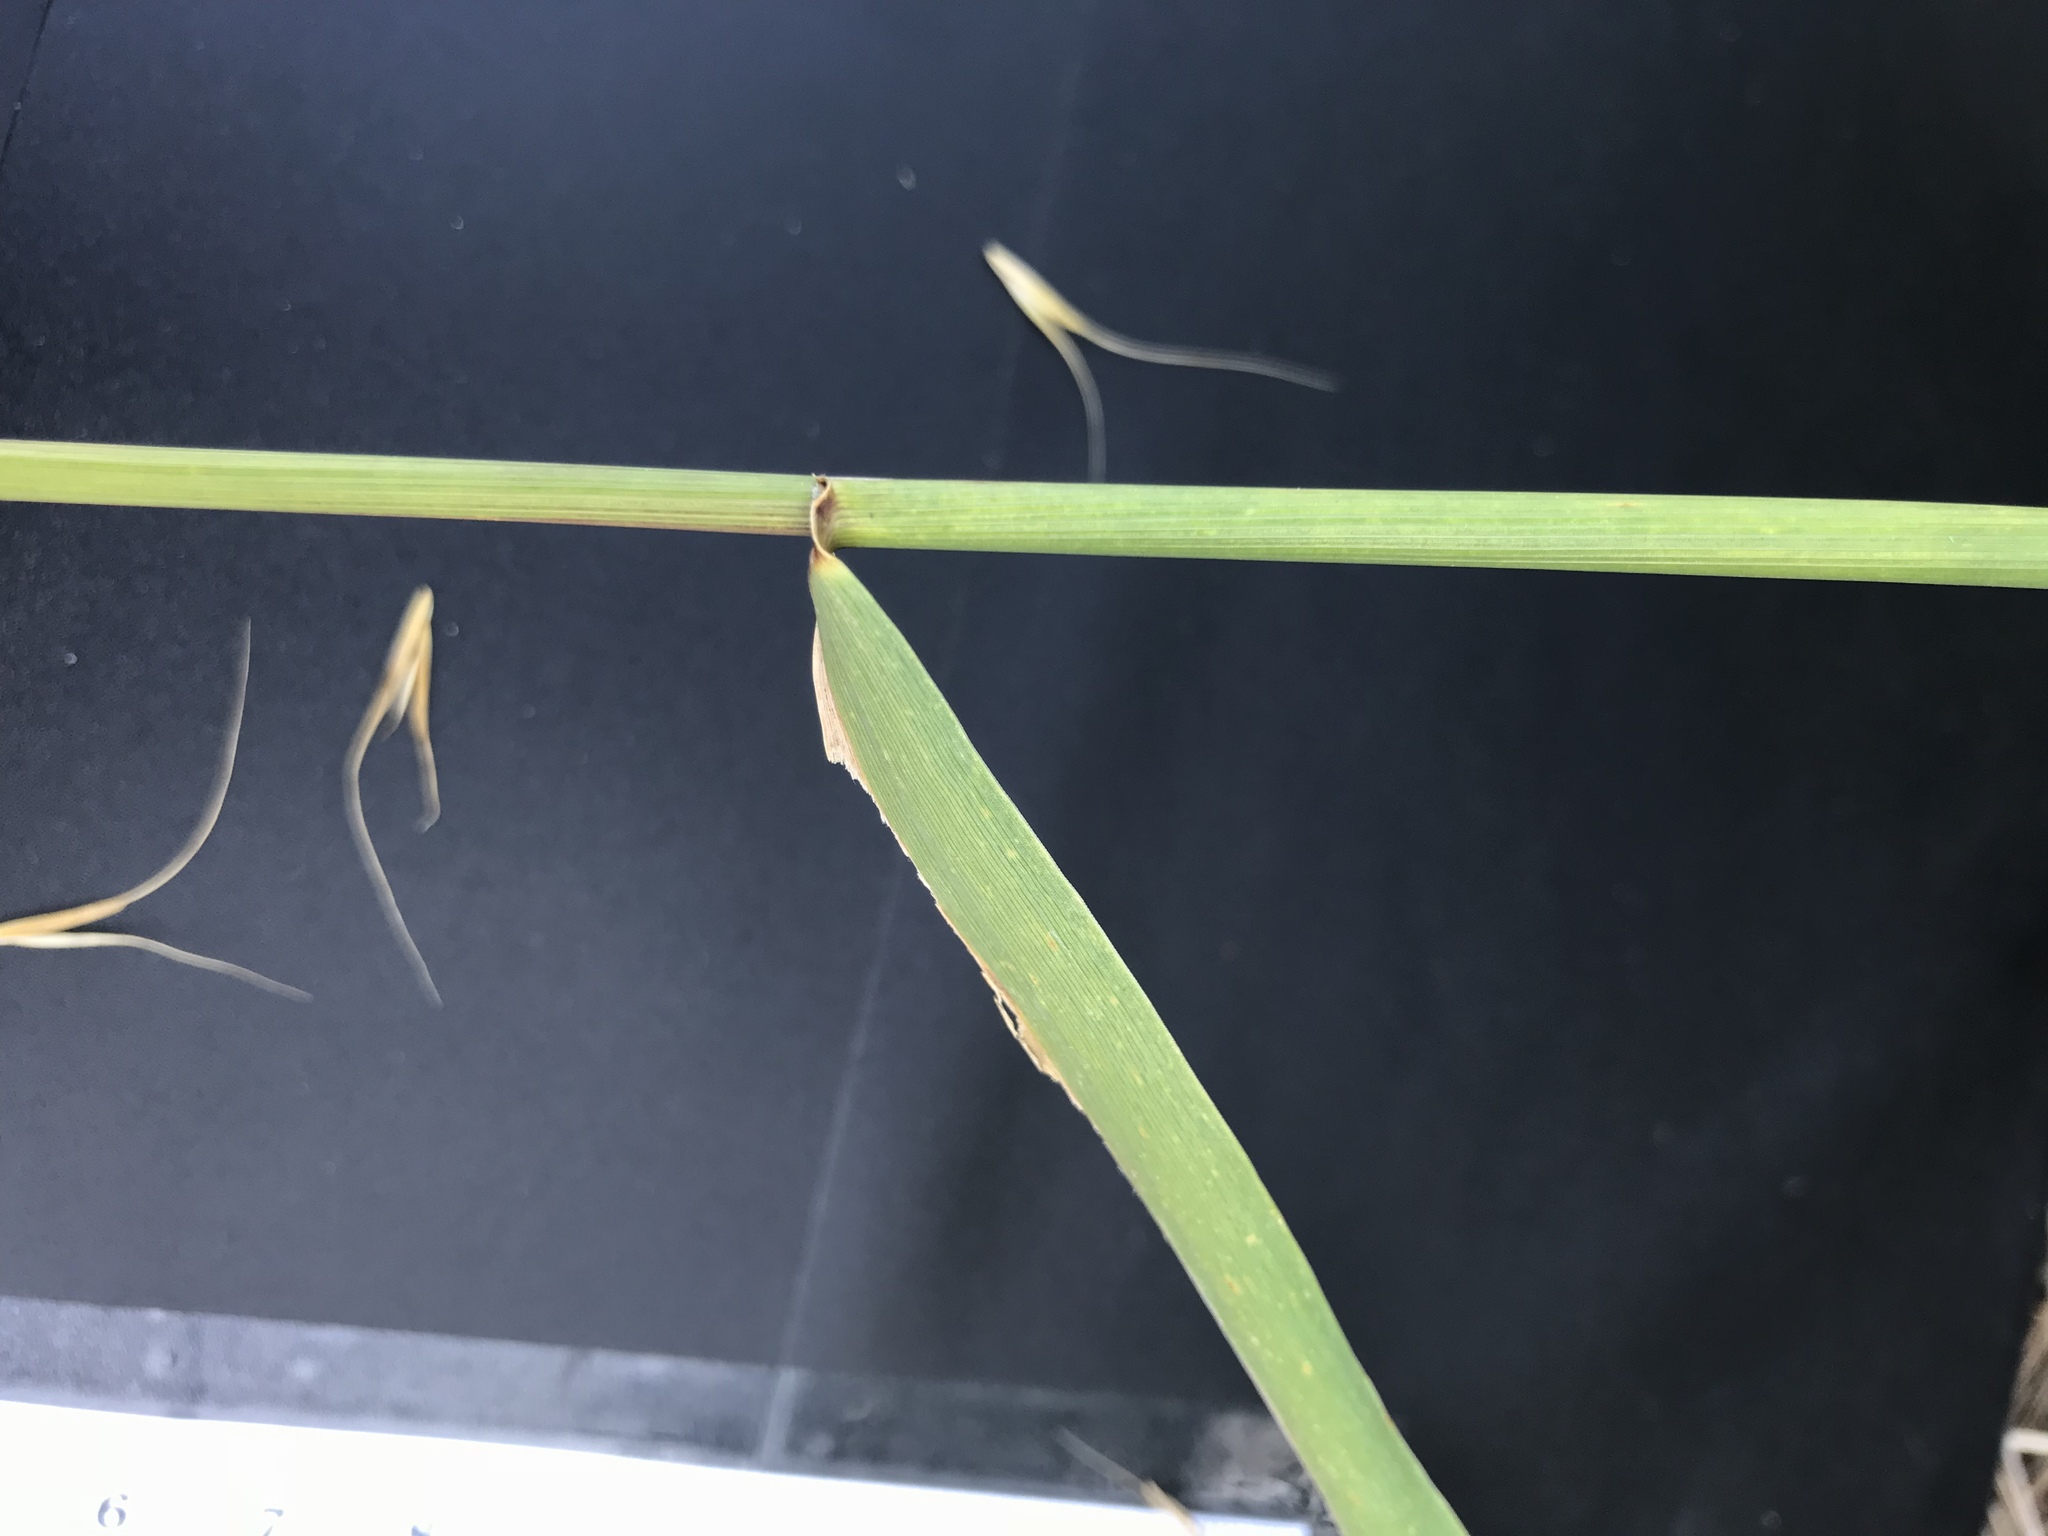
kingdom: Plantae
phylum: Tracheophyta
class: Liliopsida
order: Poales
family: Poaceae
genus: Elymus
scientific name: Elymus canadensis
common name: Canada wild rye
